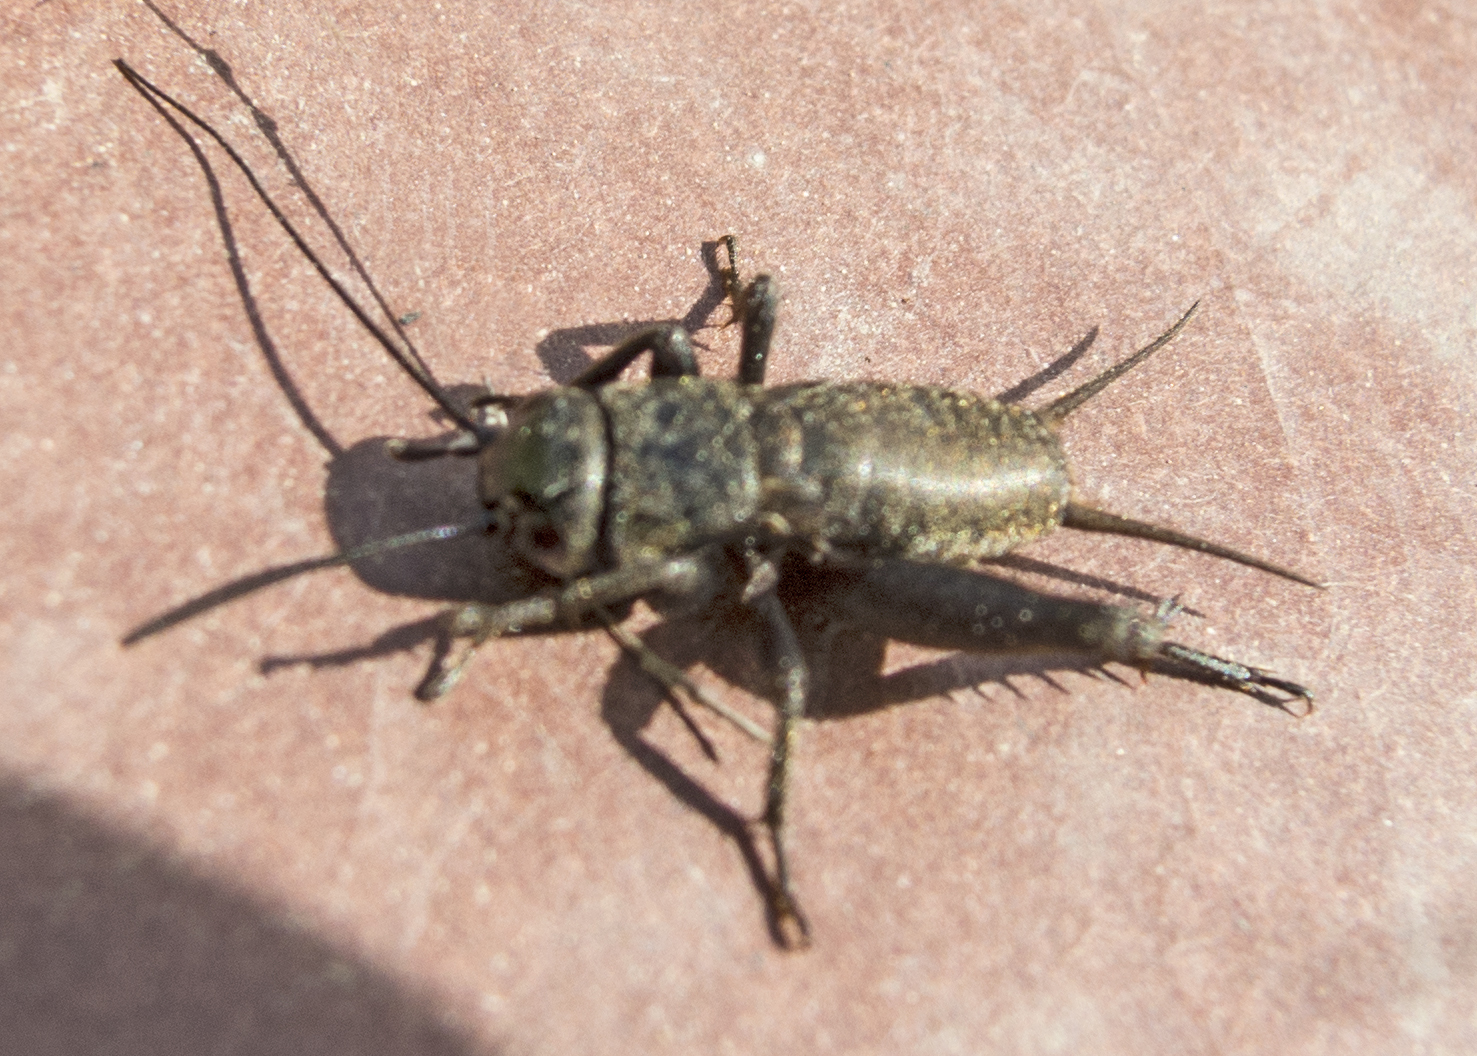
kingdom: Animalia
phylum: Arthropoda
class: Insecta
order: Orthoptera
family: Gryllidae
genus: Gryllus
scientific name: Gryllus campestris
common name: Field cricket
